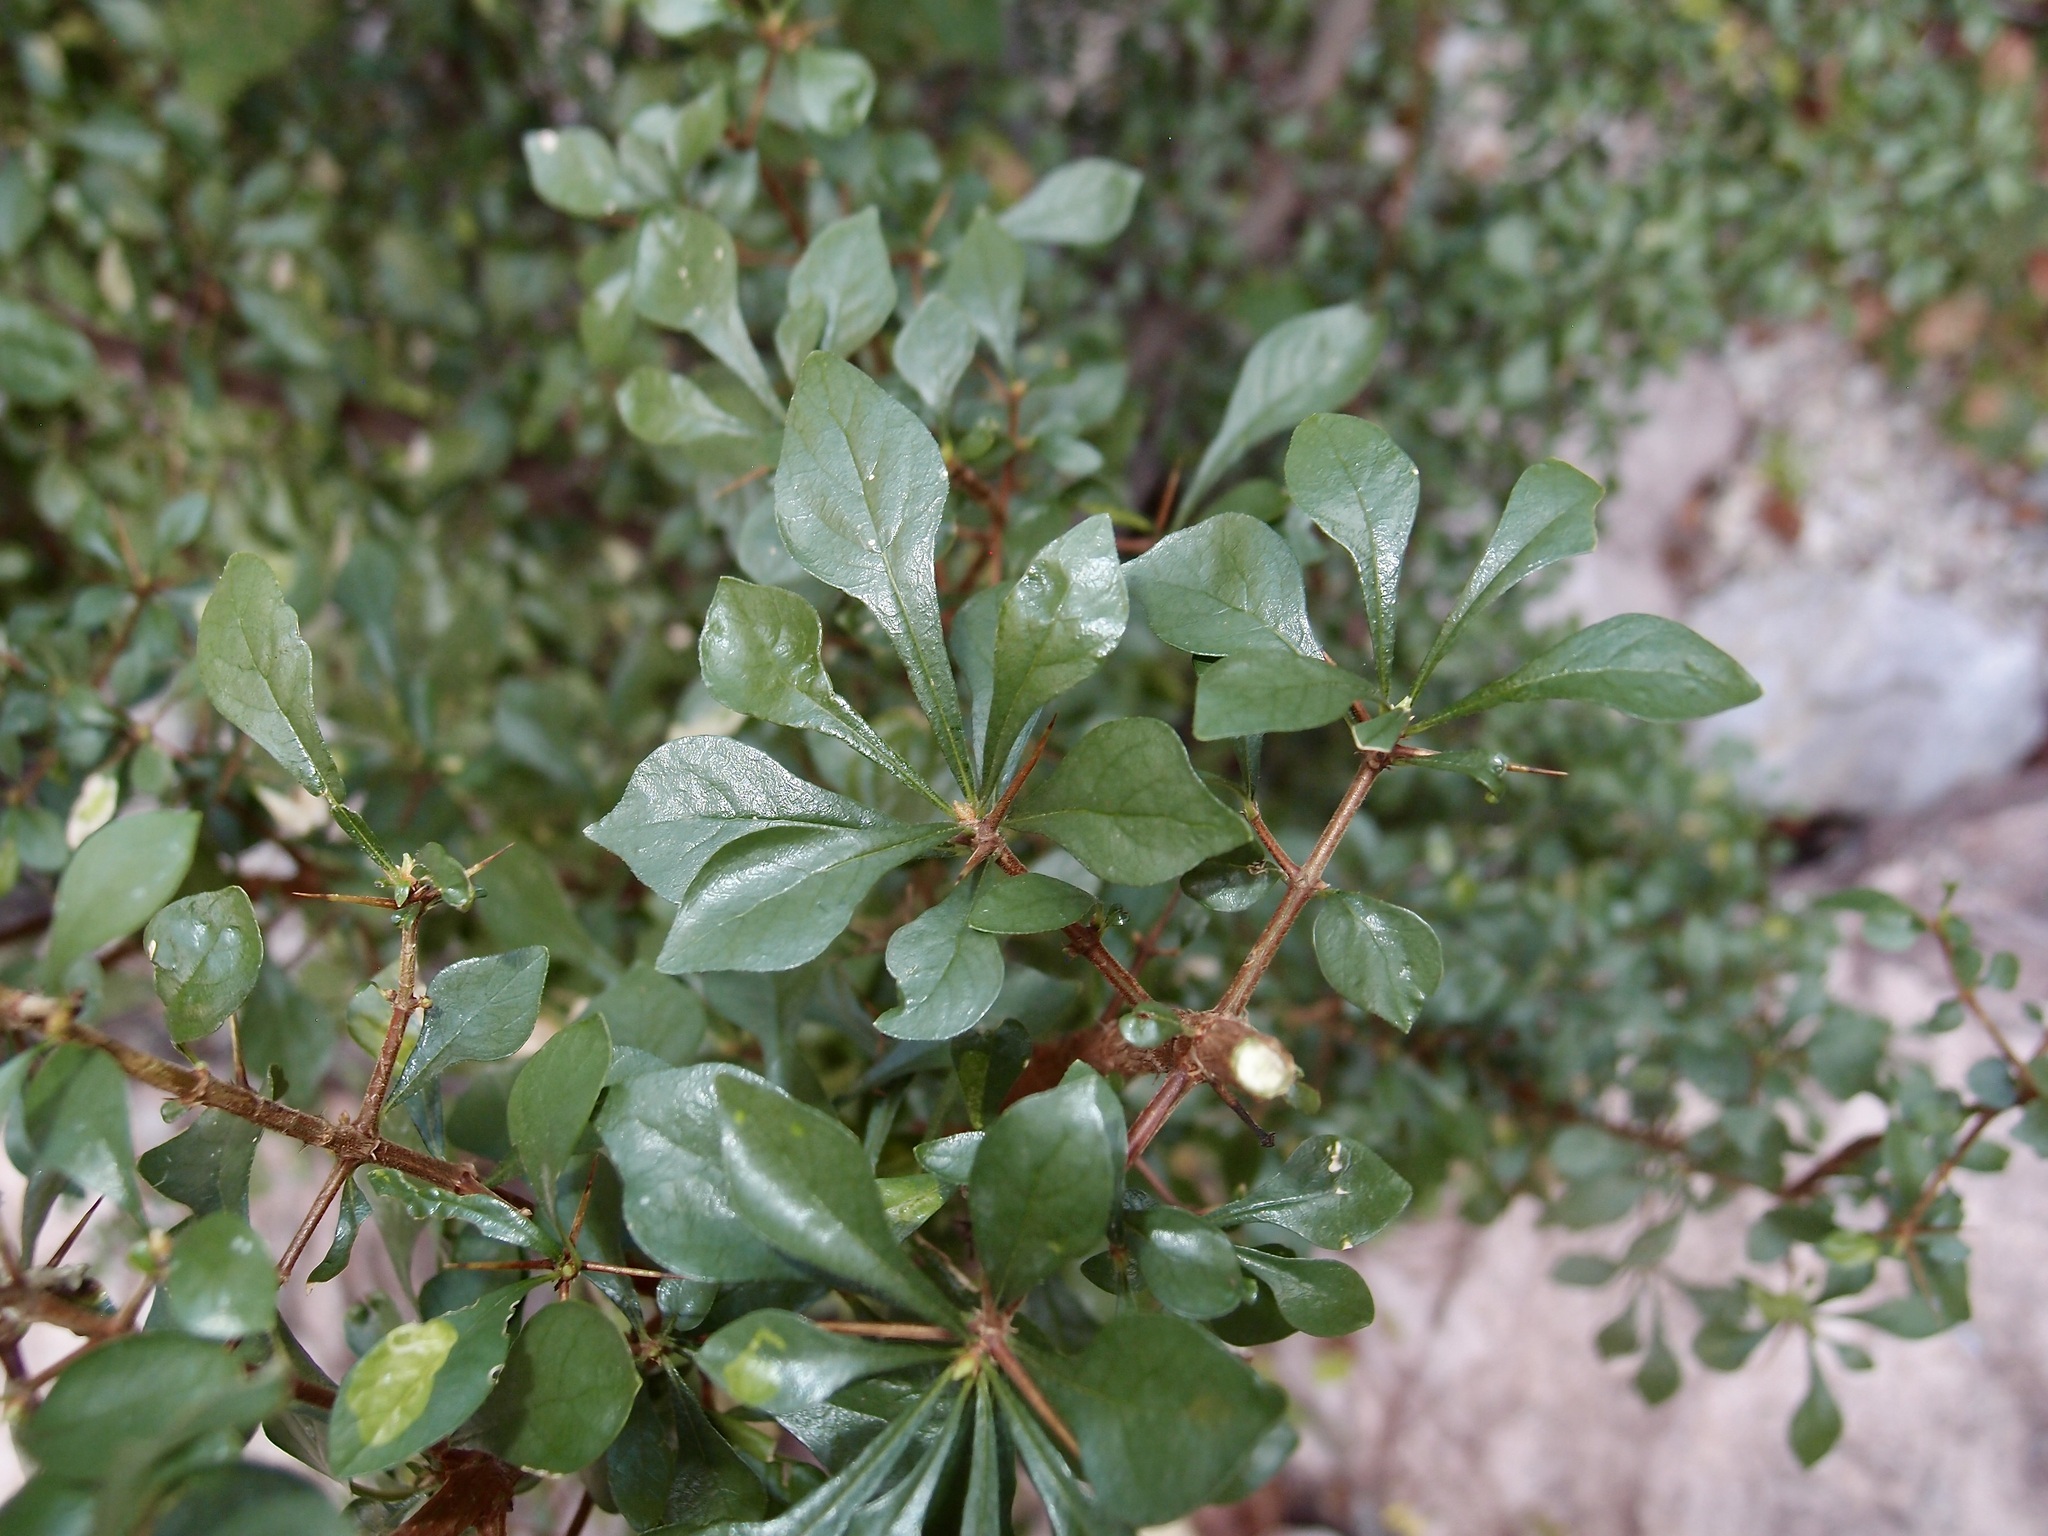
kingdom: Plantae
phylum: Tracheophyta
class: Magnoliopsida
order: Gentianales
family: Rubiaceae
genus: Randia
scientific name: Randia sonorensis
